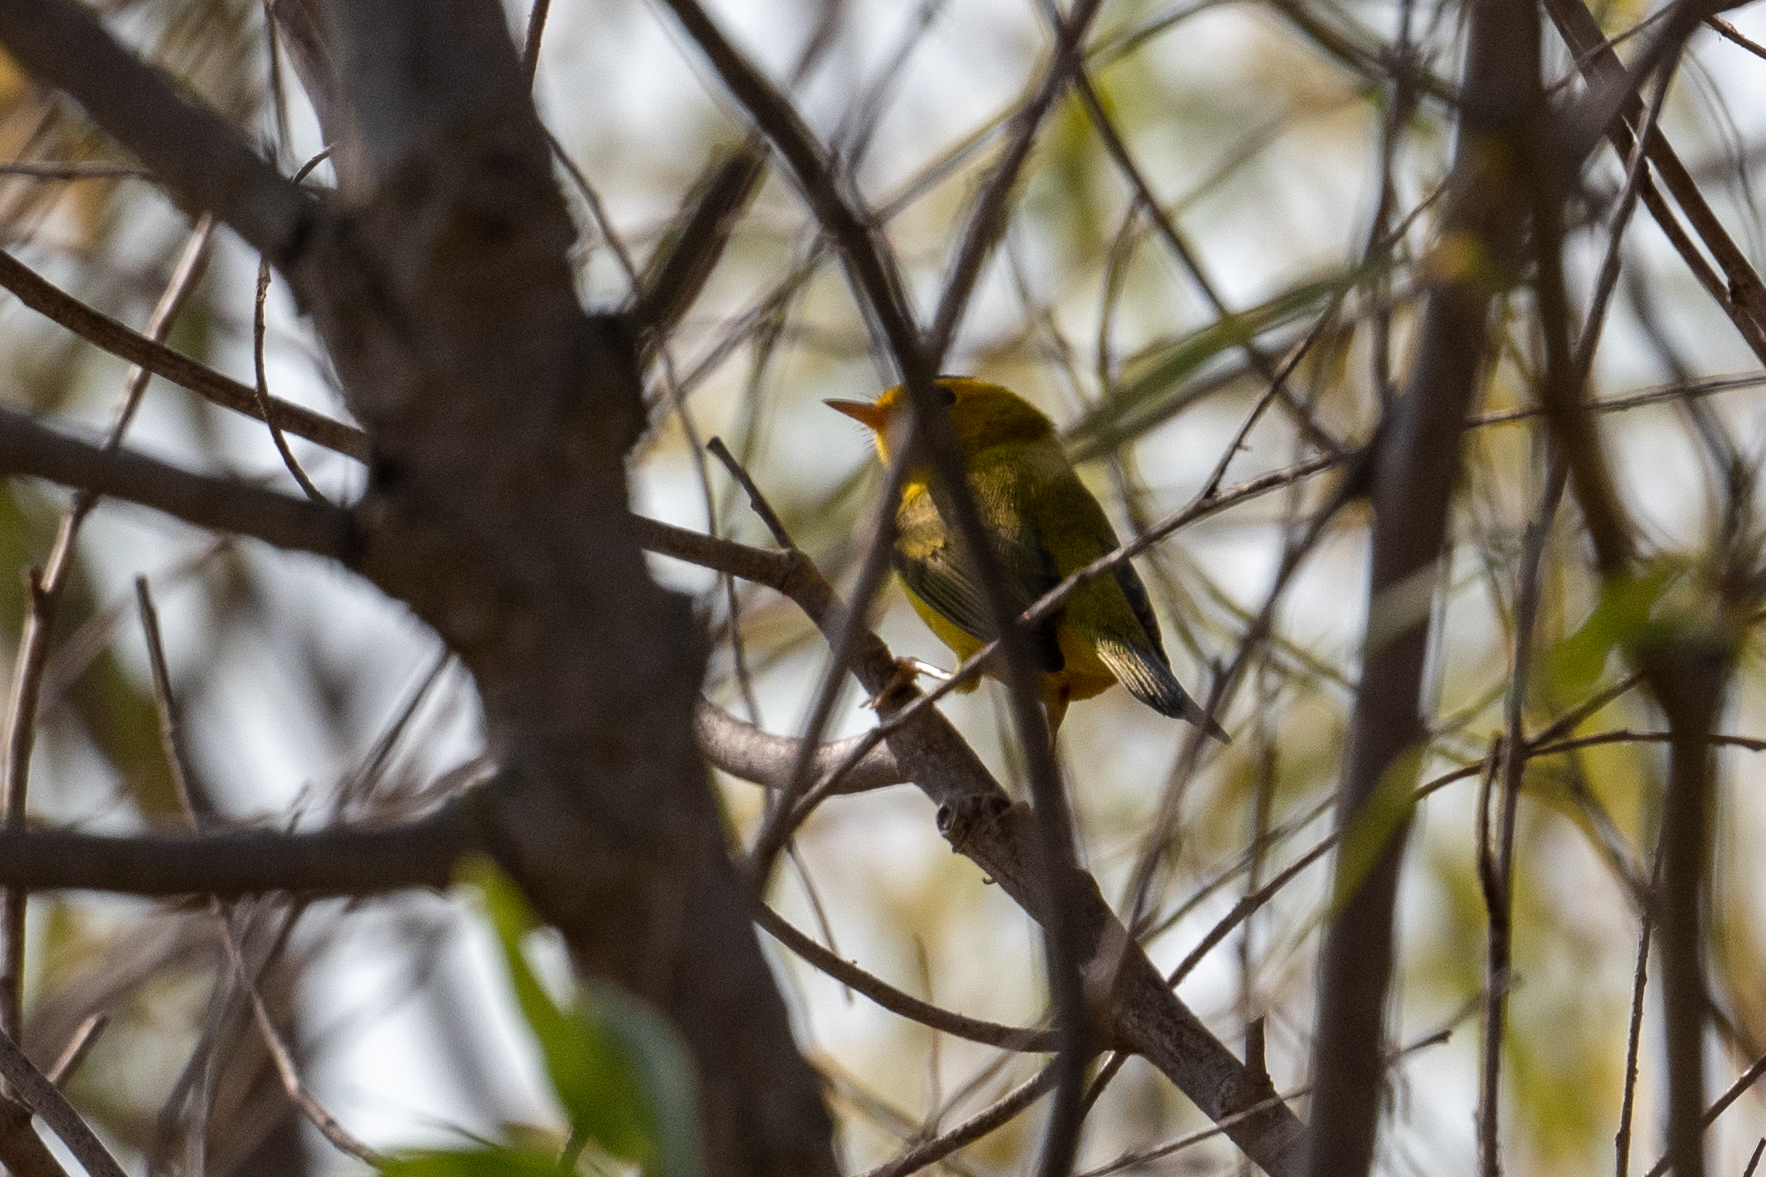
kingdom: Animalia
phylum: Chordata
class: Aves
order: Passeriformes
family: Parulidae
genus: Cardellina
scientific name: Cardellina pusilla
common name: Wilson's warbler
